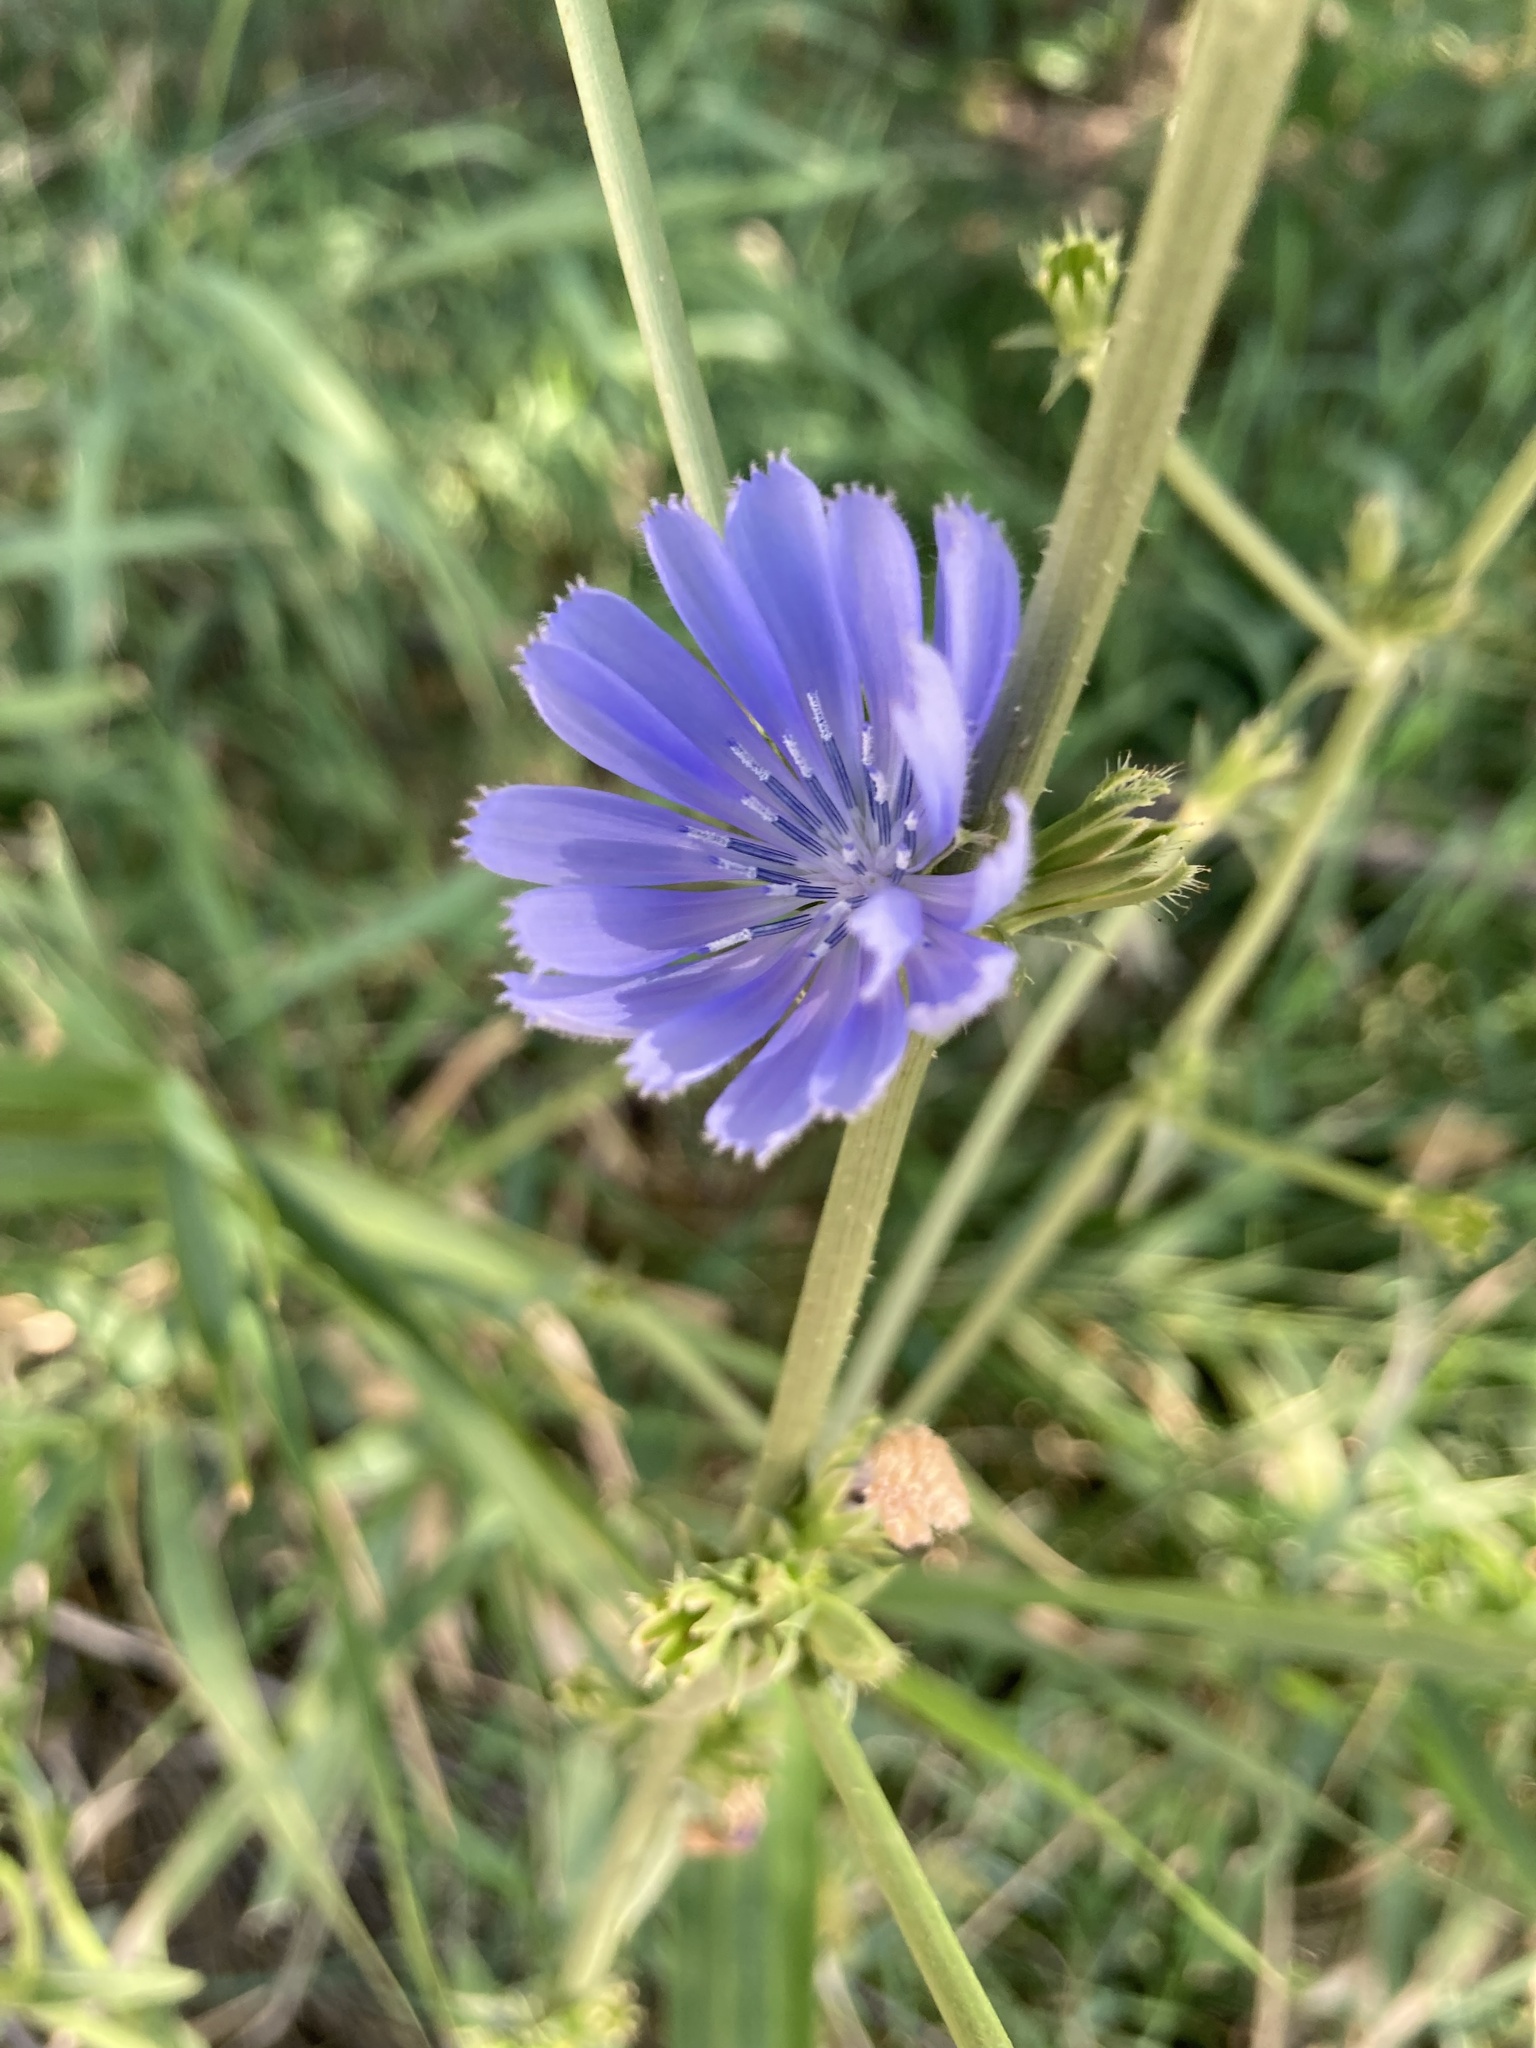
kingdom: Plantae
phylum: Tracheophyta
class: Magnoliopsida
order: Asterales
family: Asteraceae
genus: Cichorium
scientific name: Cichorium intybus
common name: Chicory
